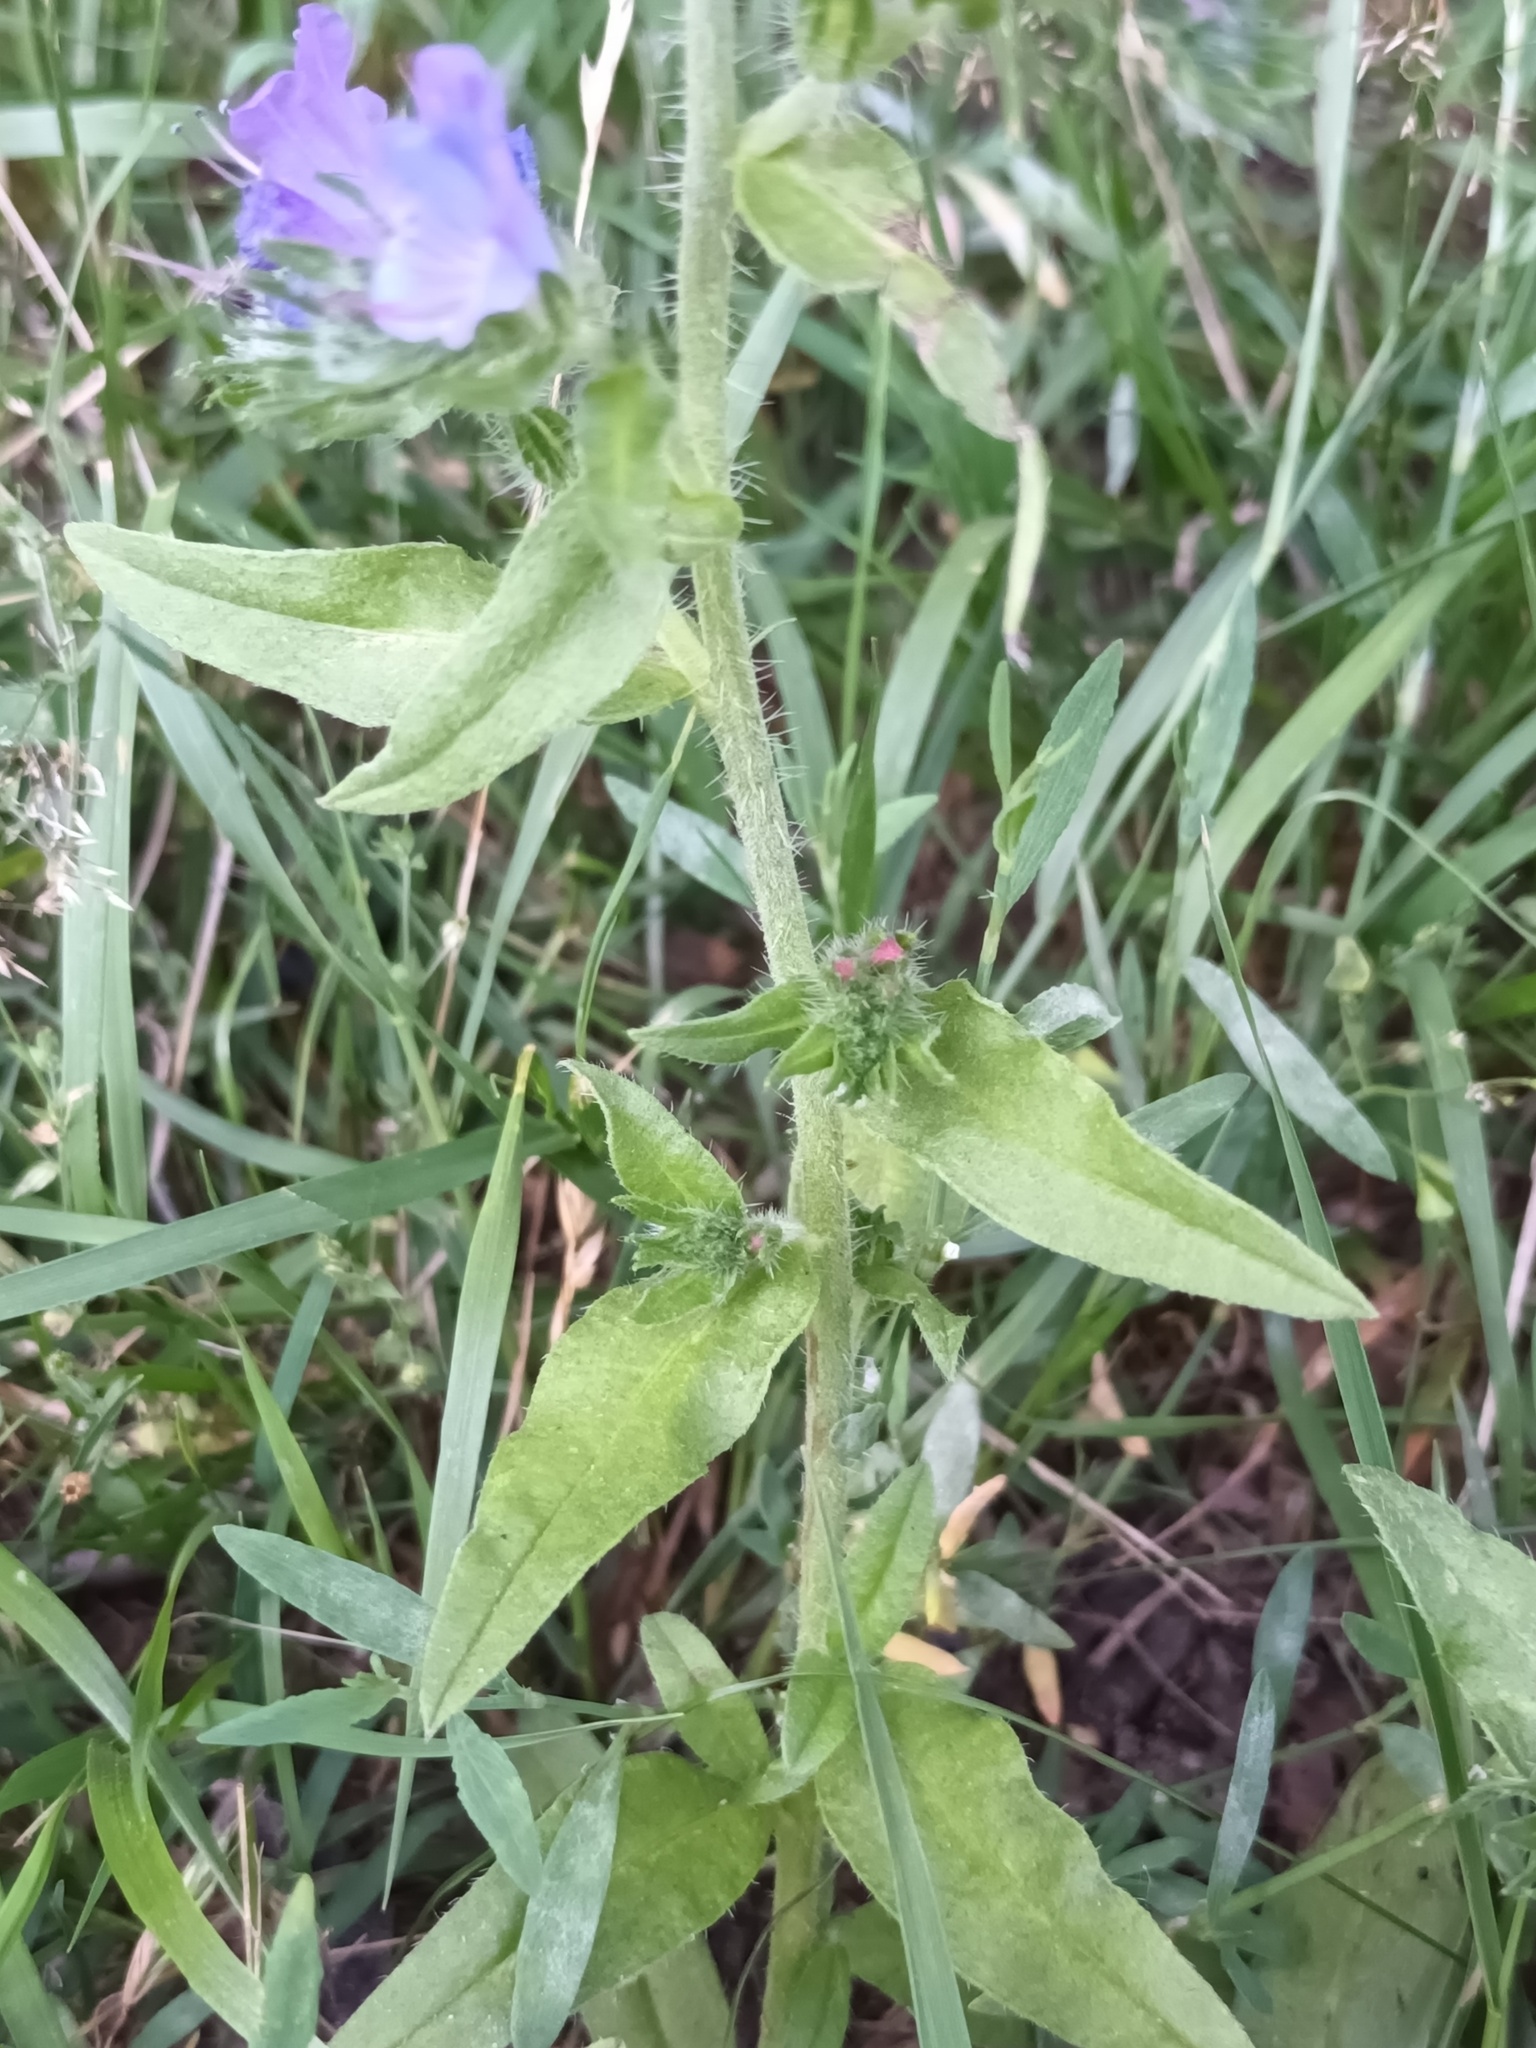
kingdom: Plantae
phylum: Tracheophyta
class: Magnoliopsida
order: Boraginales
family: Boraginaceae
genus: Echium
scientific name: Echium vulgare
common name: Common viper's bugloss
